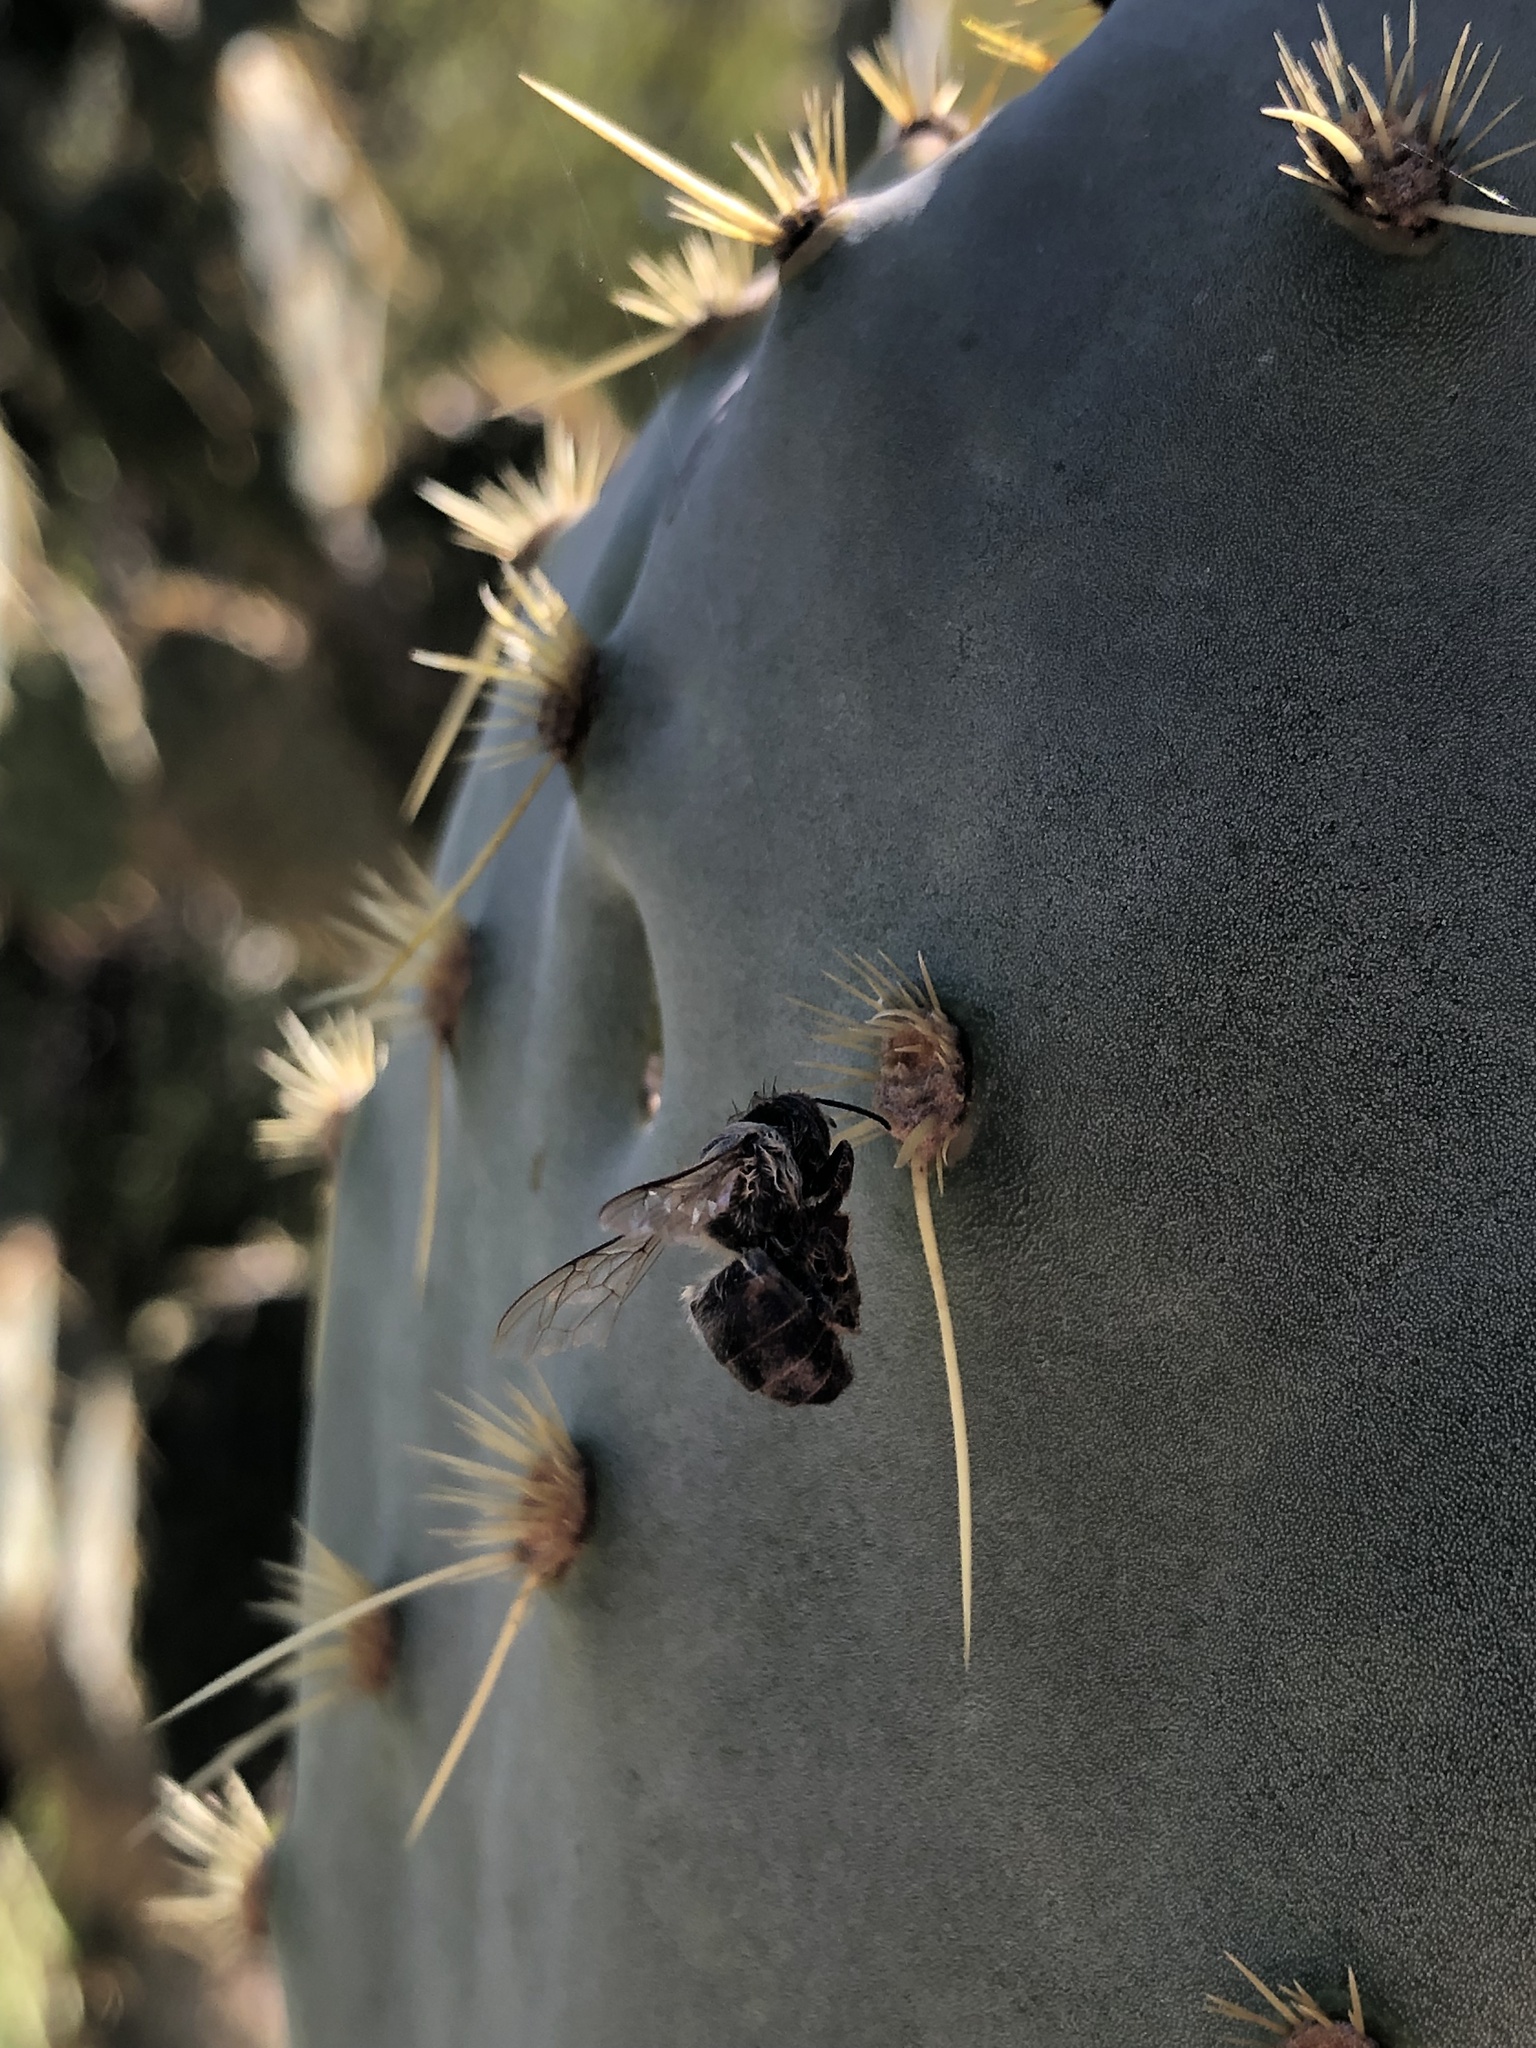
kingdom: Animalia
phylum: Arthropoda
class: Insecta
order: Hymenoptera
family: Apidae
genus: Apis
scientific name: Apis mellifera
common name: Honey bee
